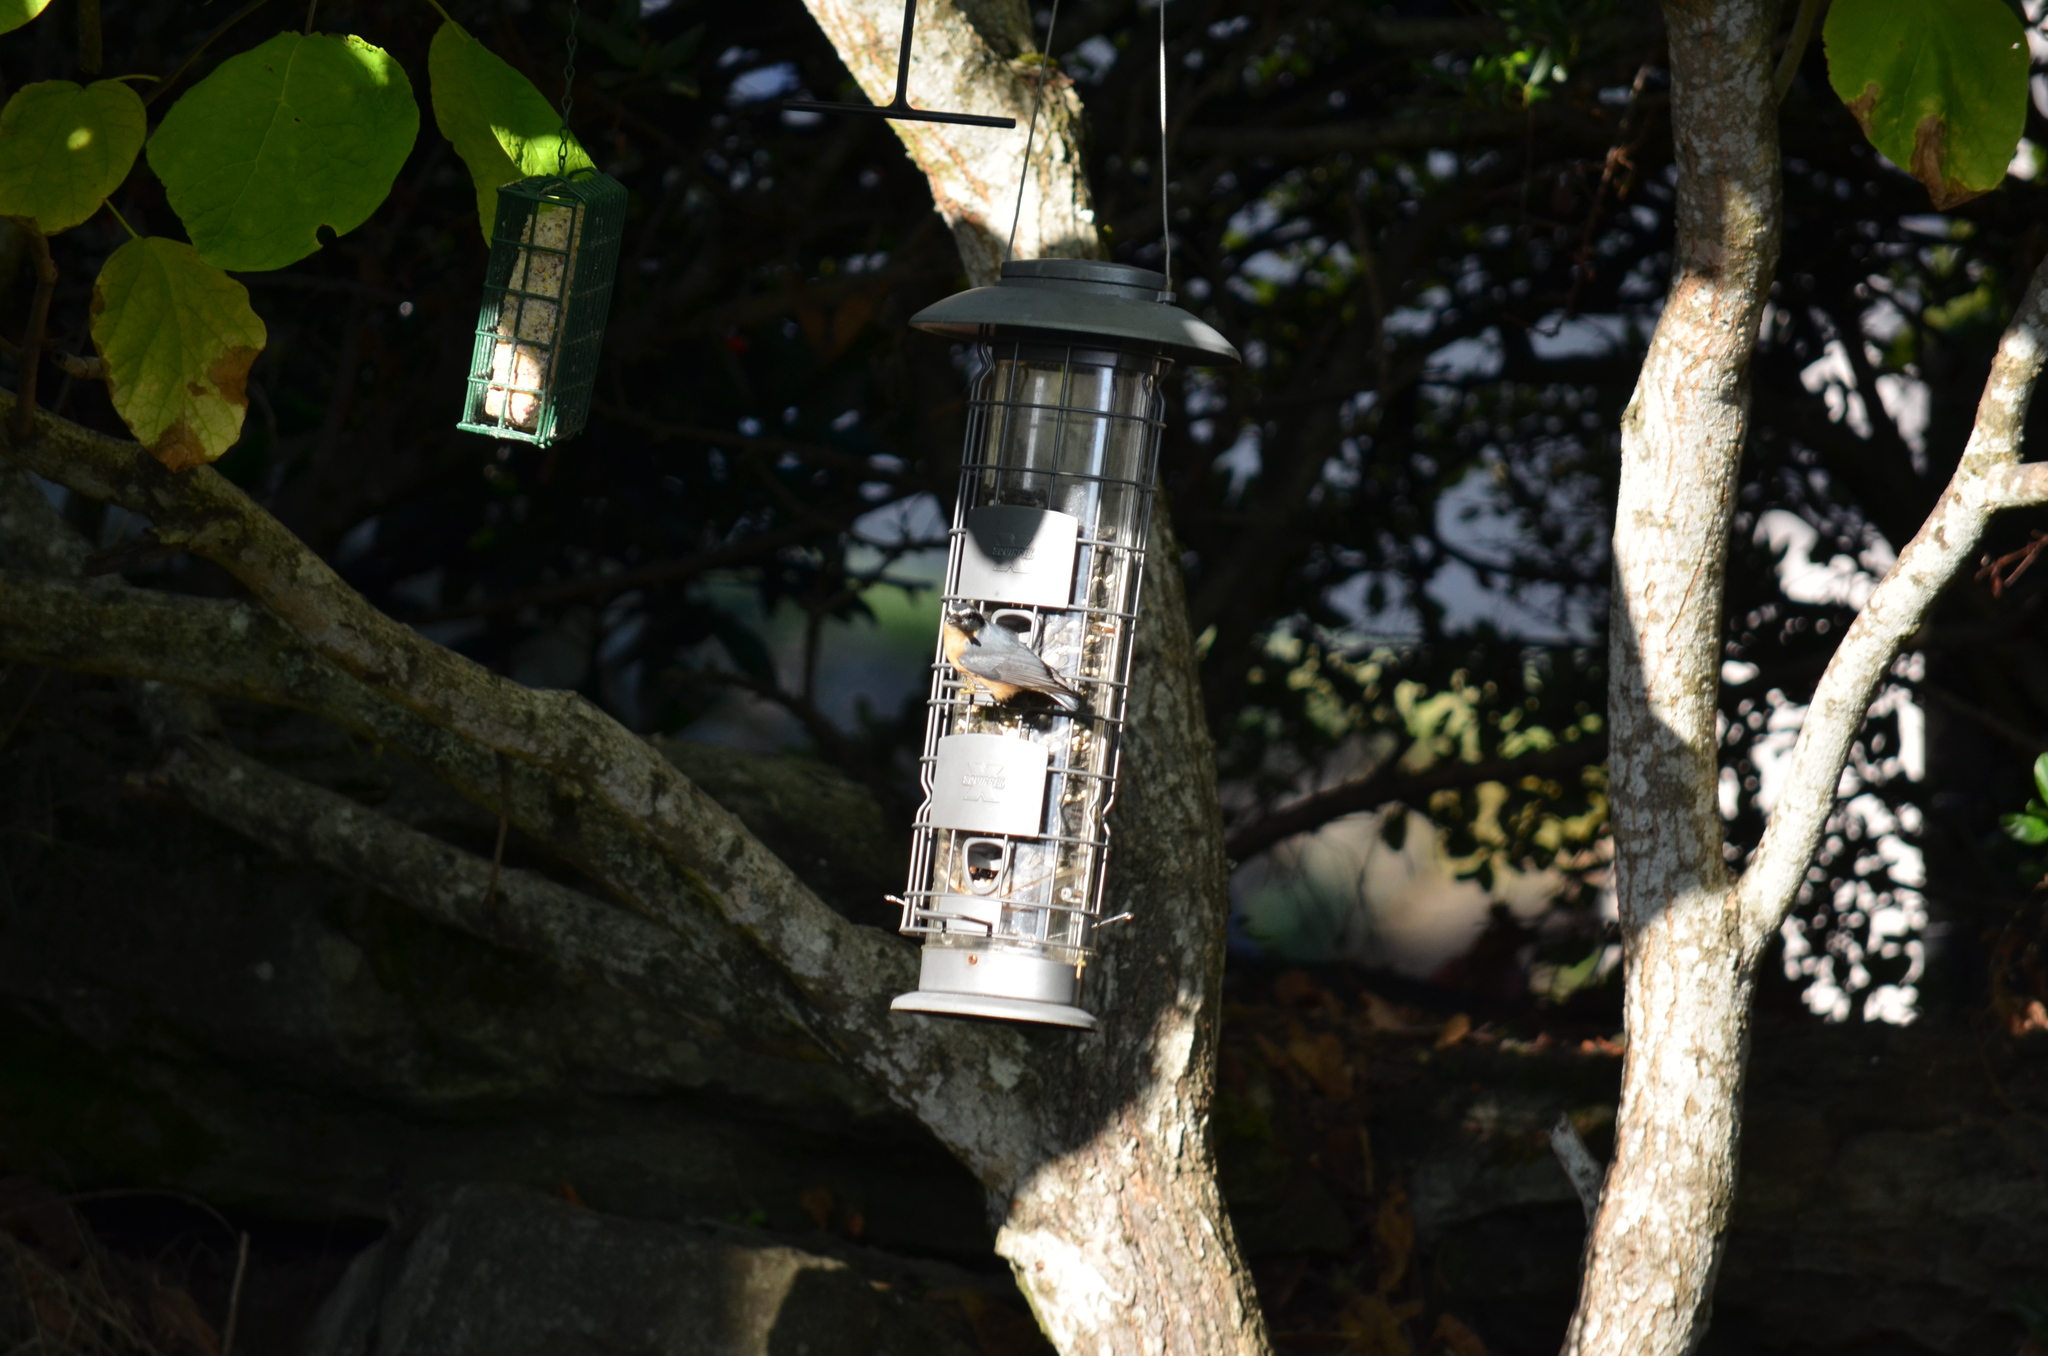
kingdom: Animalia
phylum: Chordata
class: Aves
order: Passeriformes
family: Sittidae
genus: Sitta
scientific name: Sitta canadensis
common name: Red-breasted nuthatch
